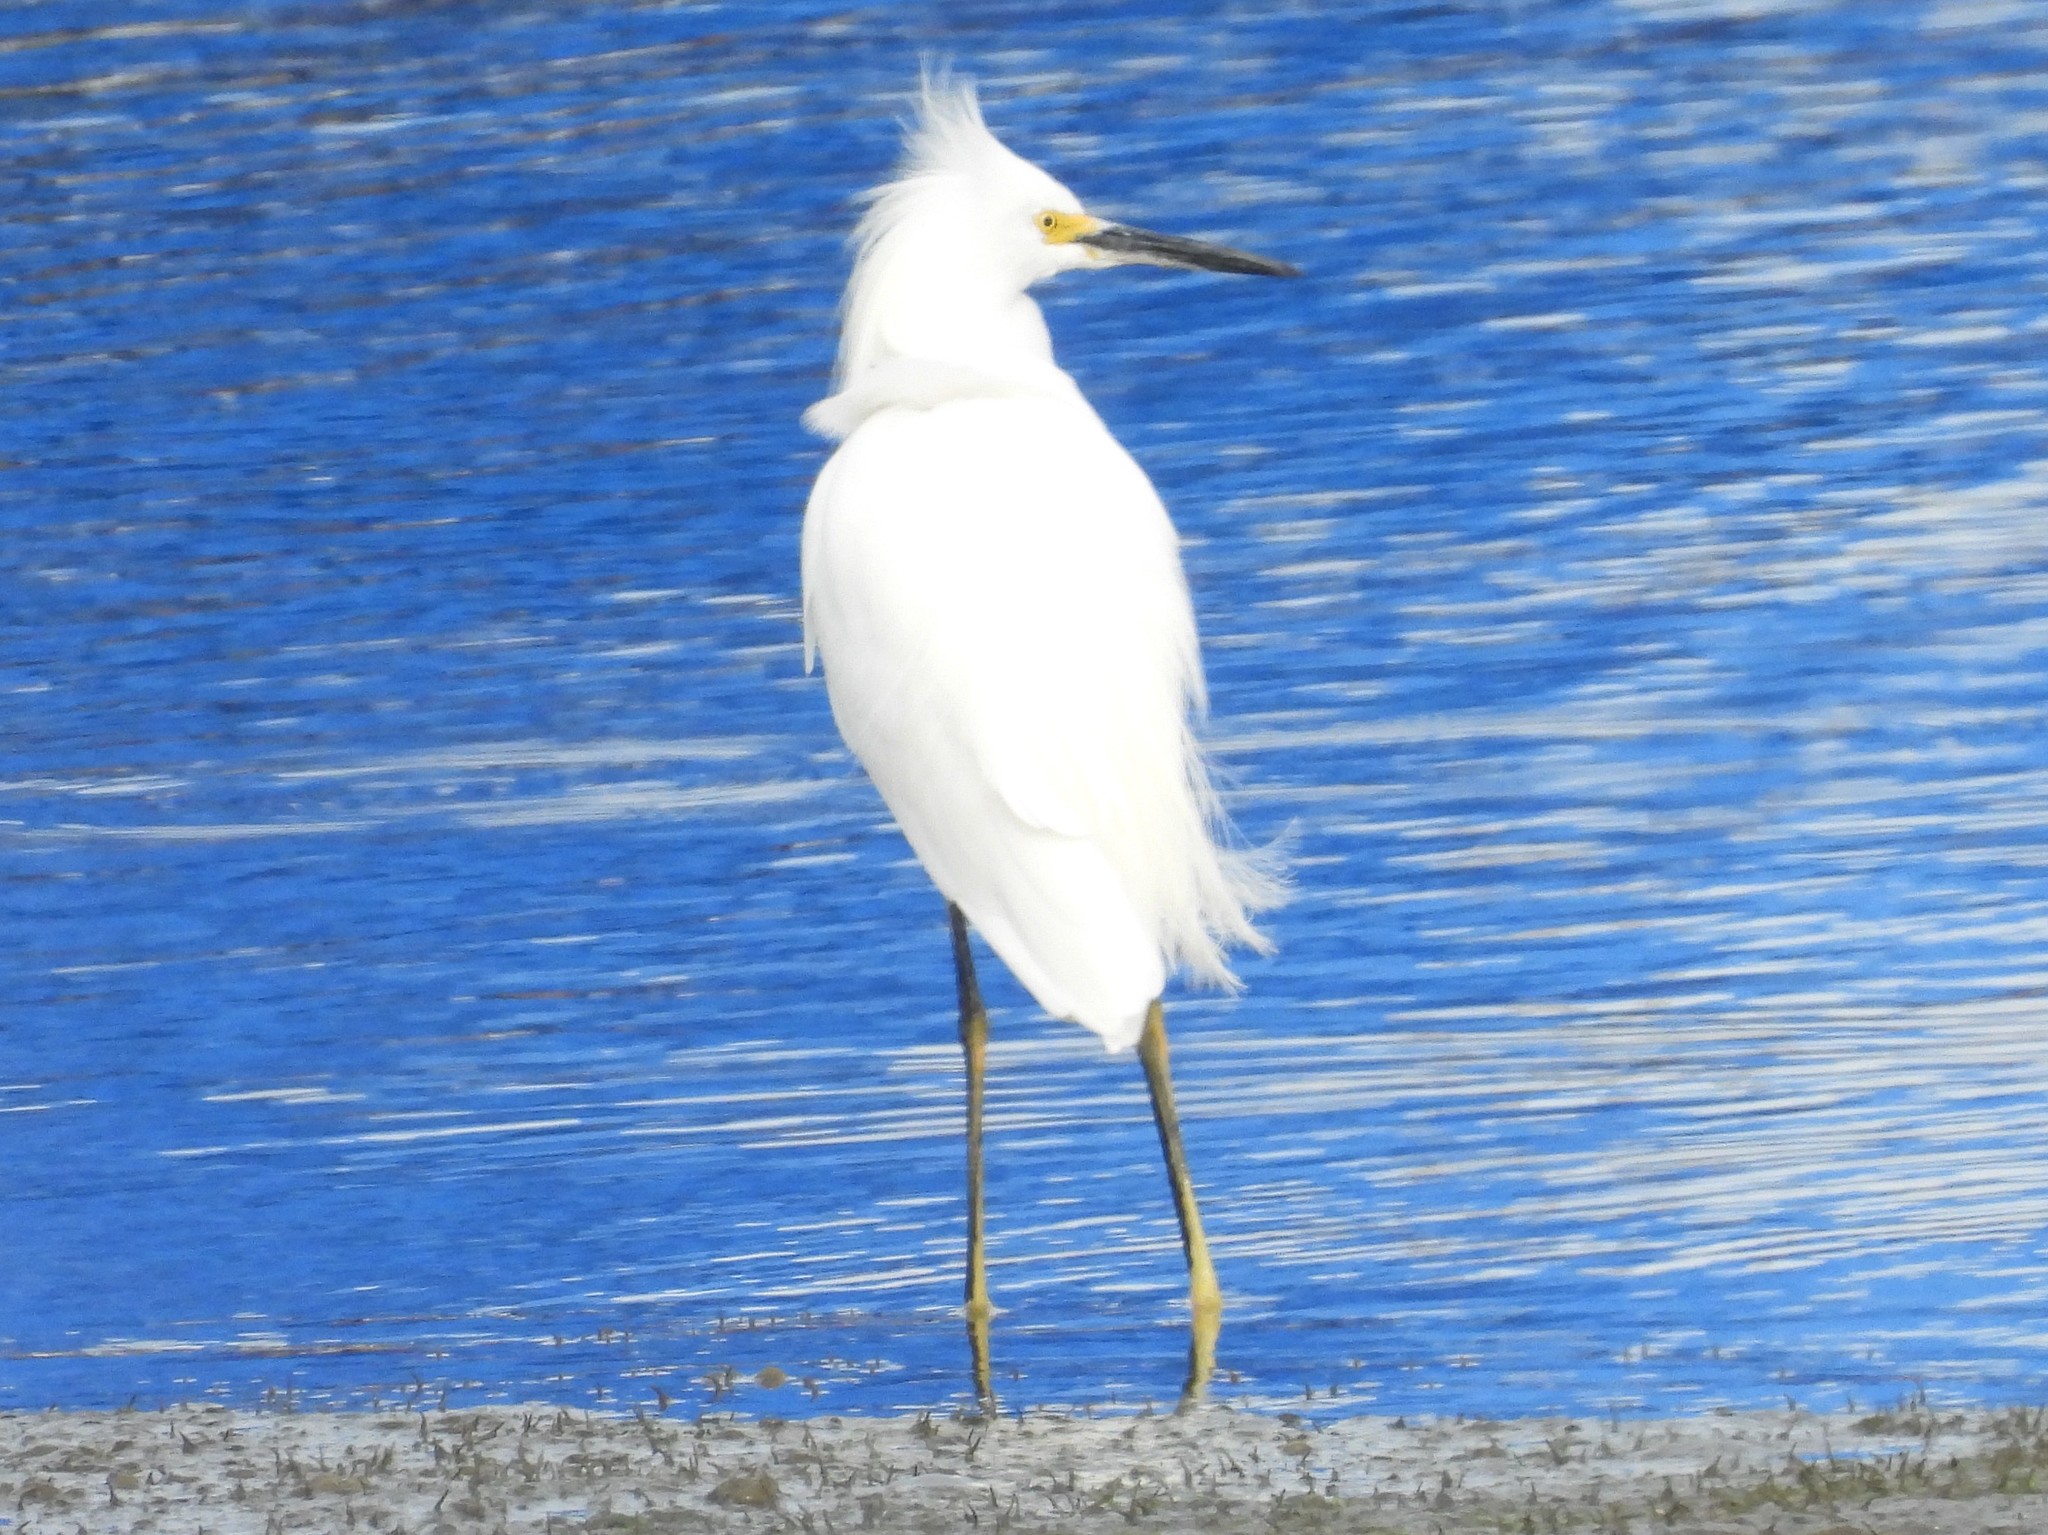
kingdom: Animalia
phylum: Chordata
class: Aves
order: Pelecaniformes
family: Ardeidae
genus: Egretta
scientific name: Egretta thula
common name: Snowy egret
